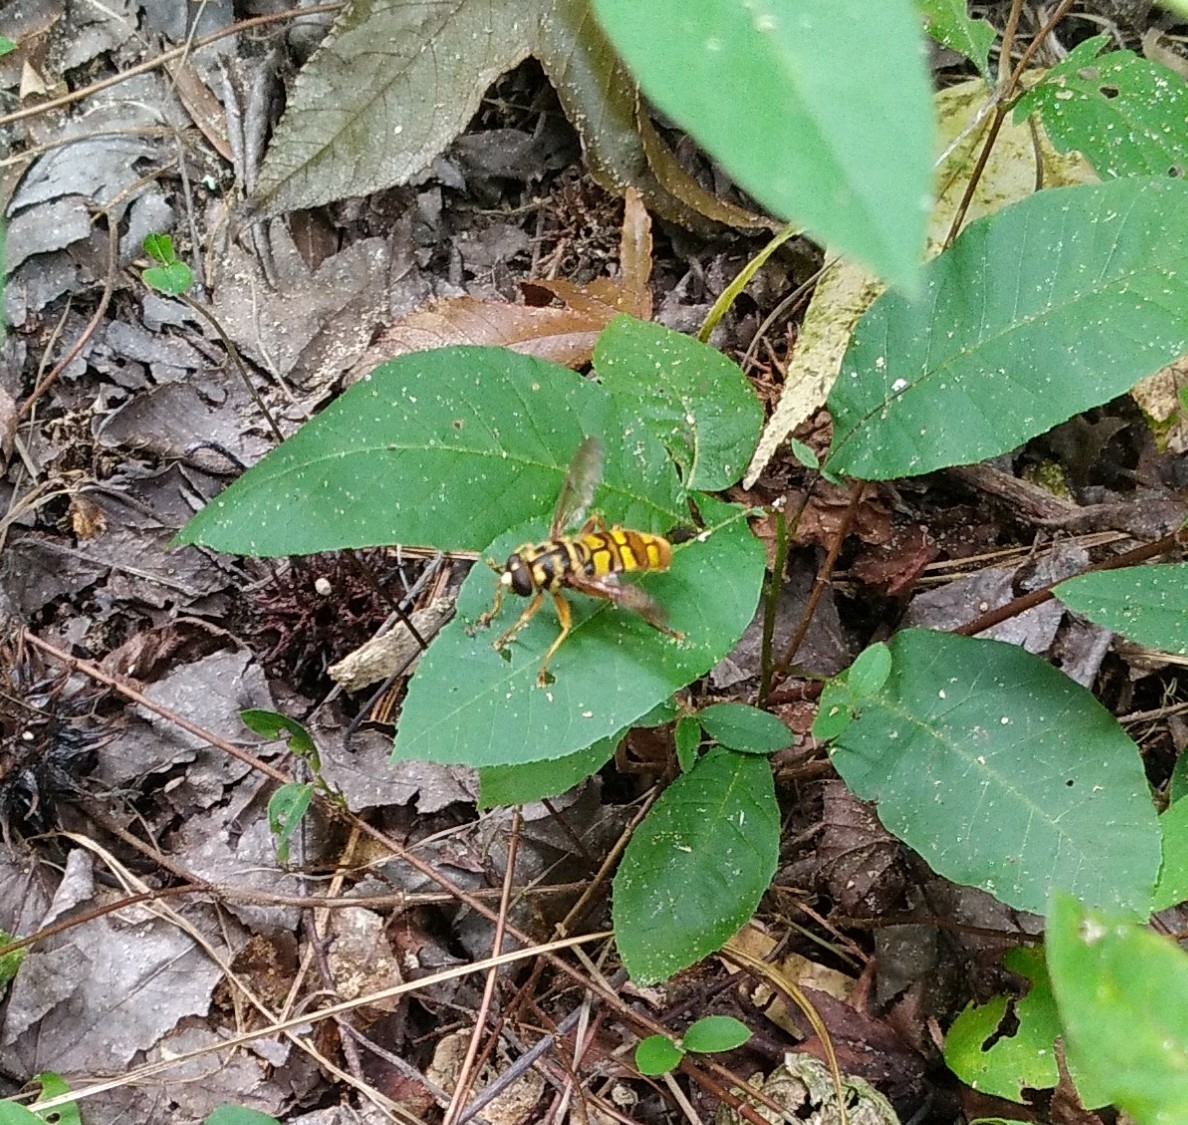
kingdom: Animalia
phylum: Arthropoda
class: Insecta
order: Diptera
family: Syrphidae
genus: Milesia
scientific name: Milesia virginiensis
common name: Virginia giant
